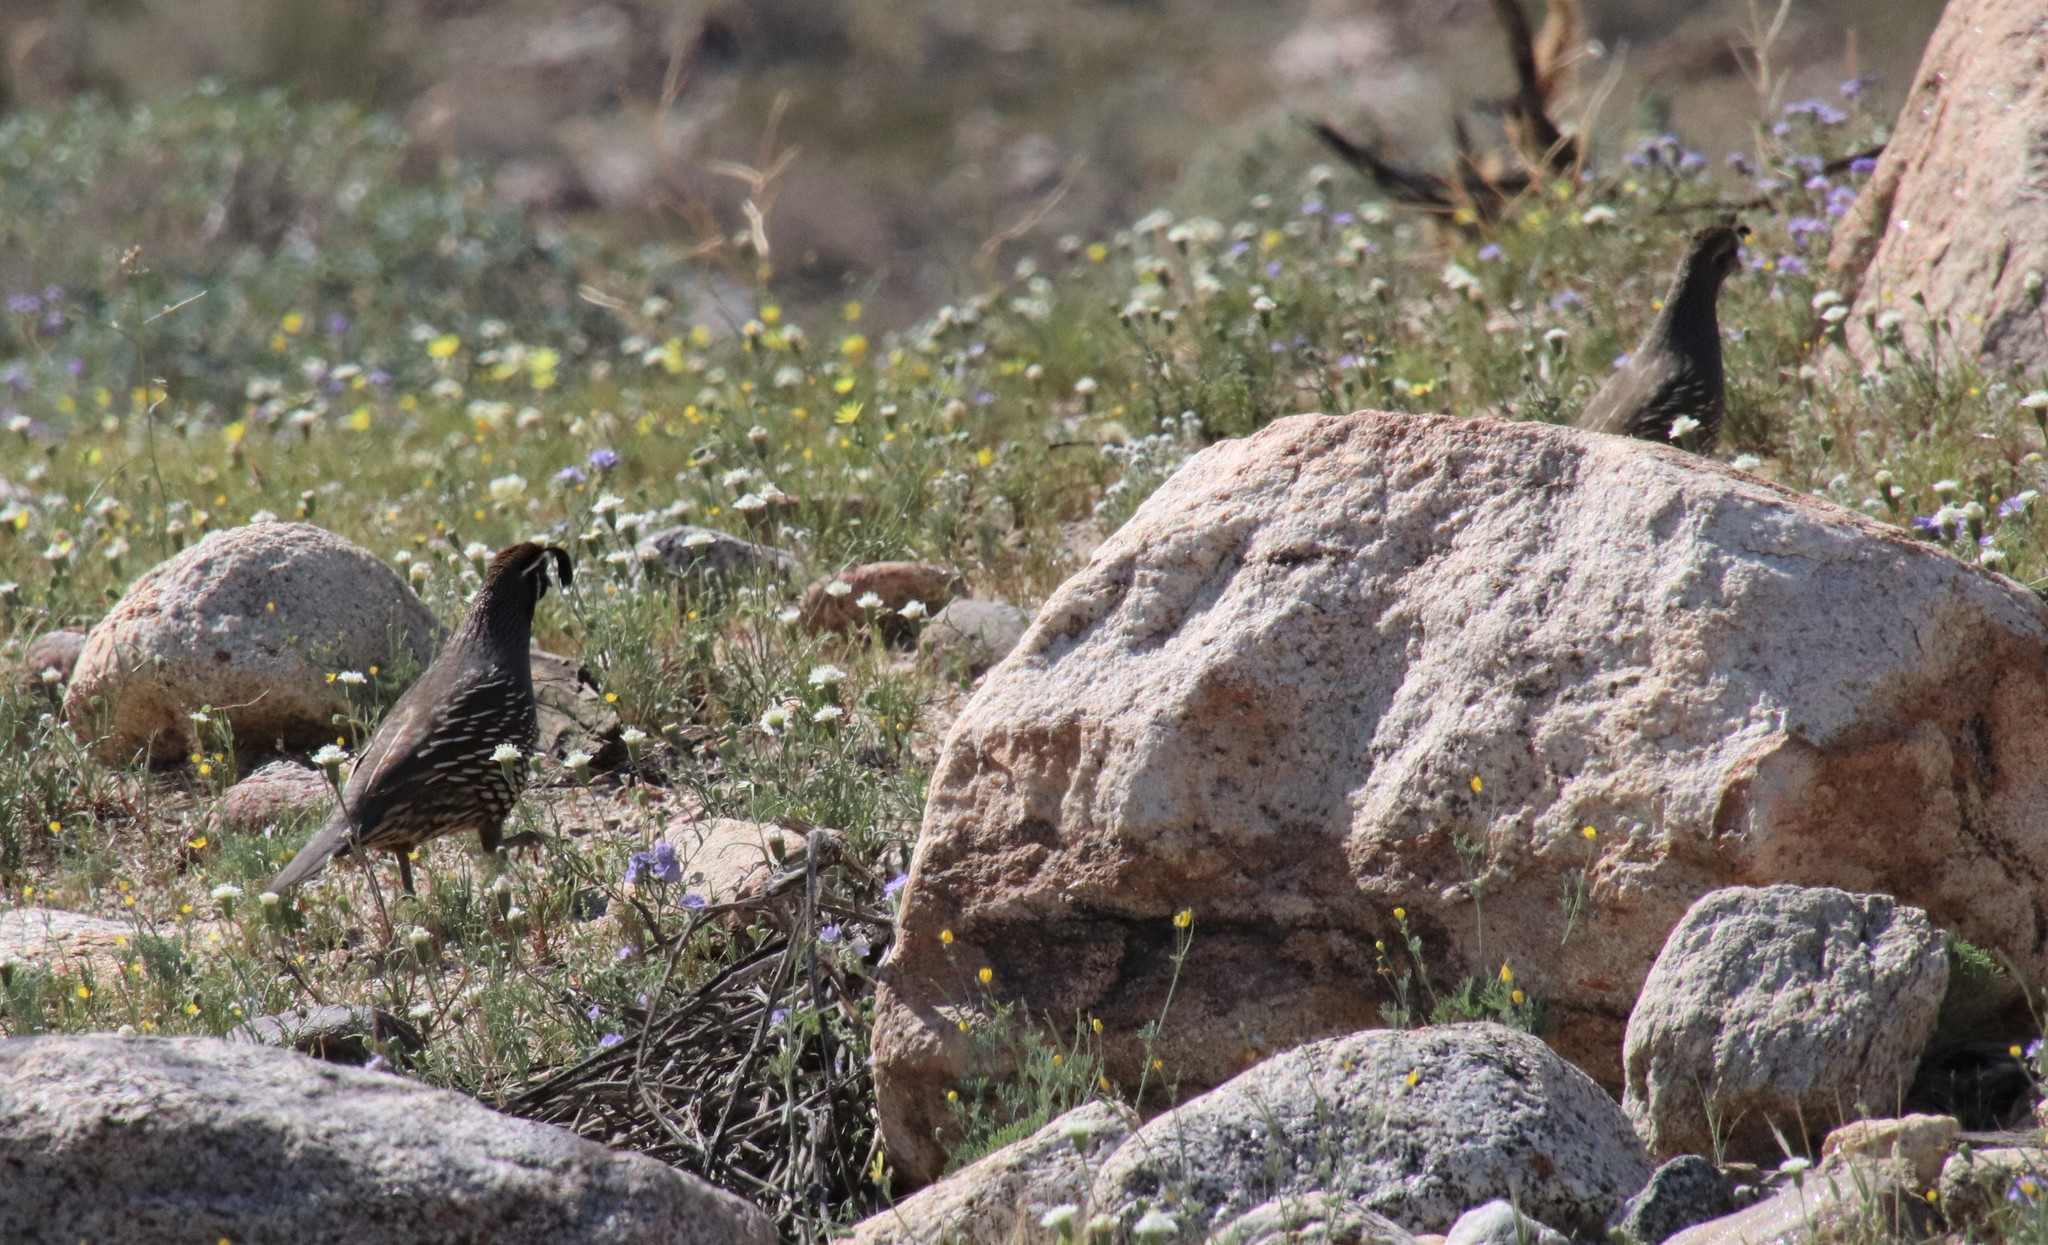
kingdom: Animalia
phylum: Chordata
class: Aves
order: Galliformes
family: Odontophoridae
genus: Callipepla
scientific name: Callipepla californica
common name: California quail
